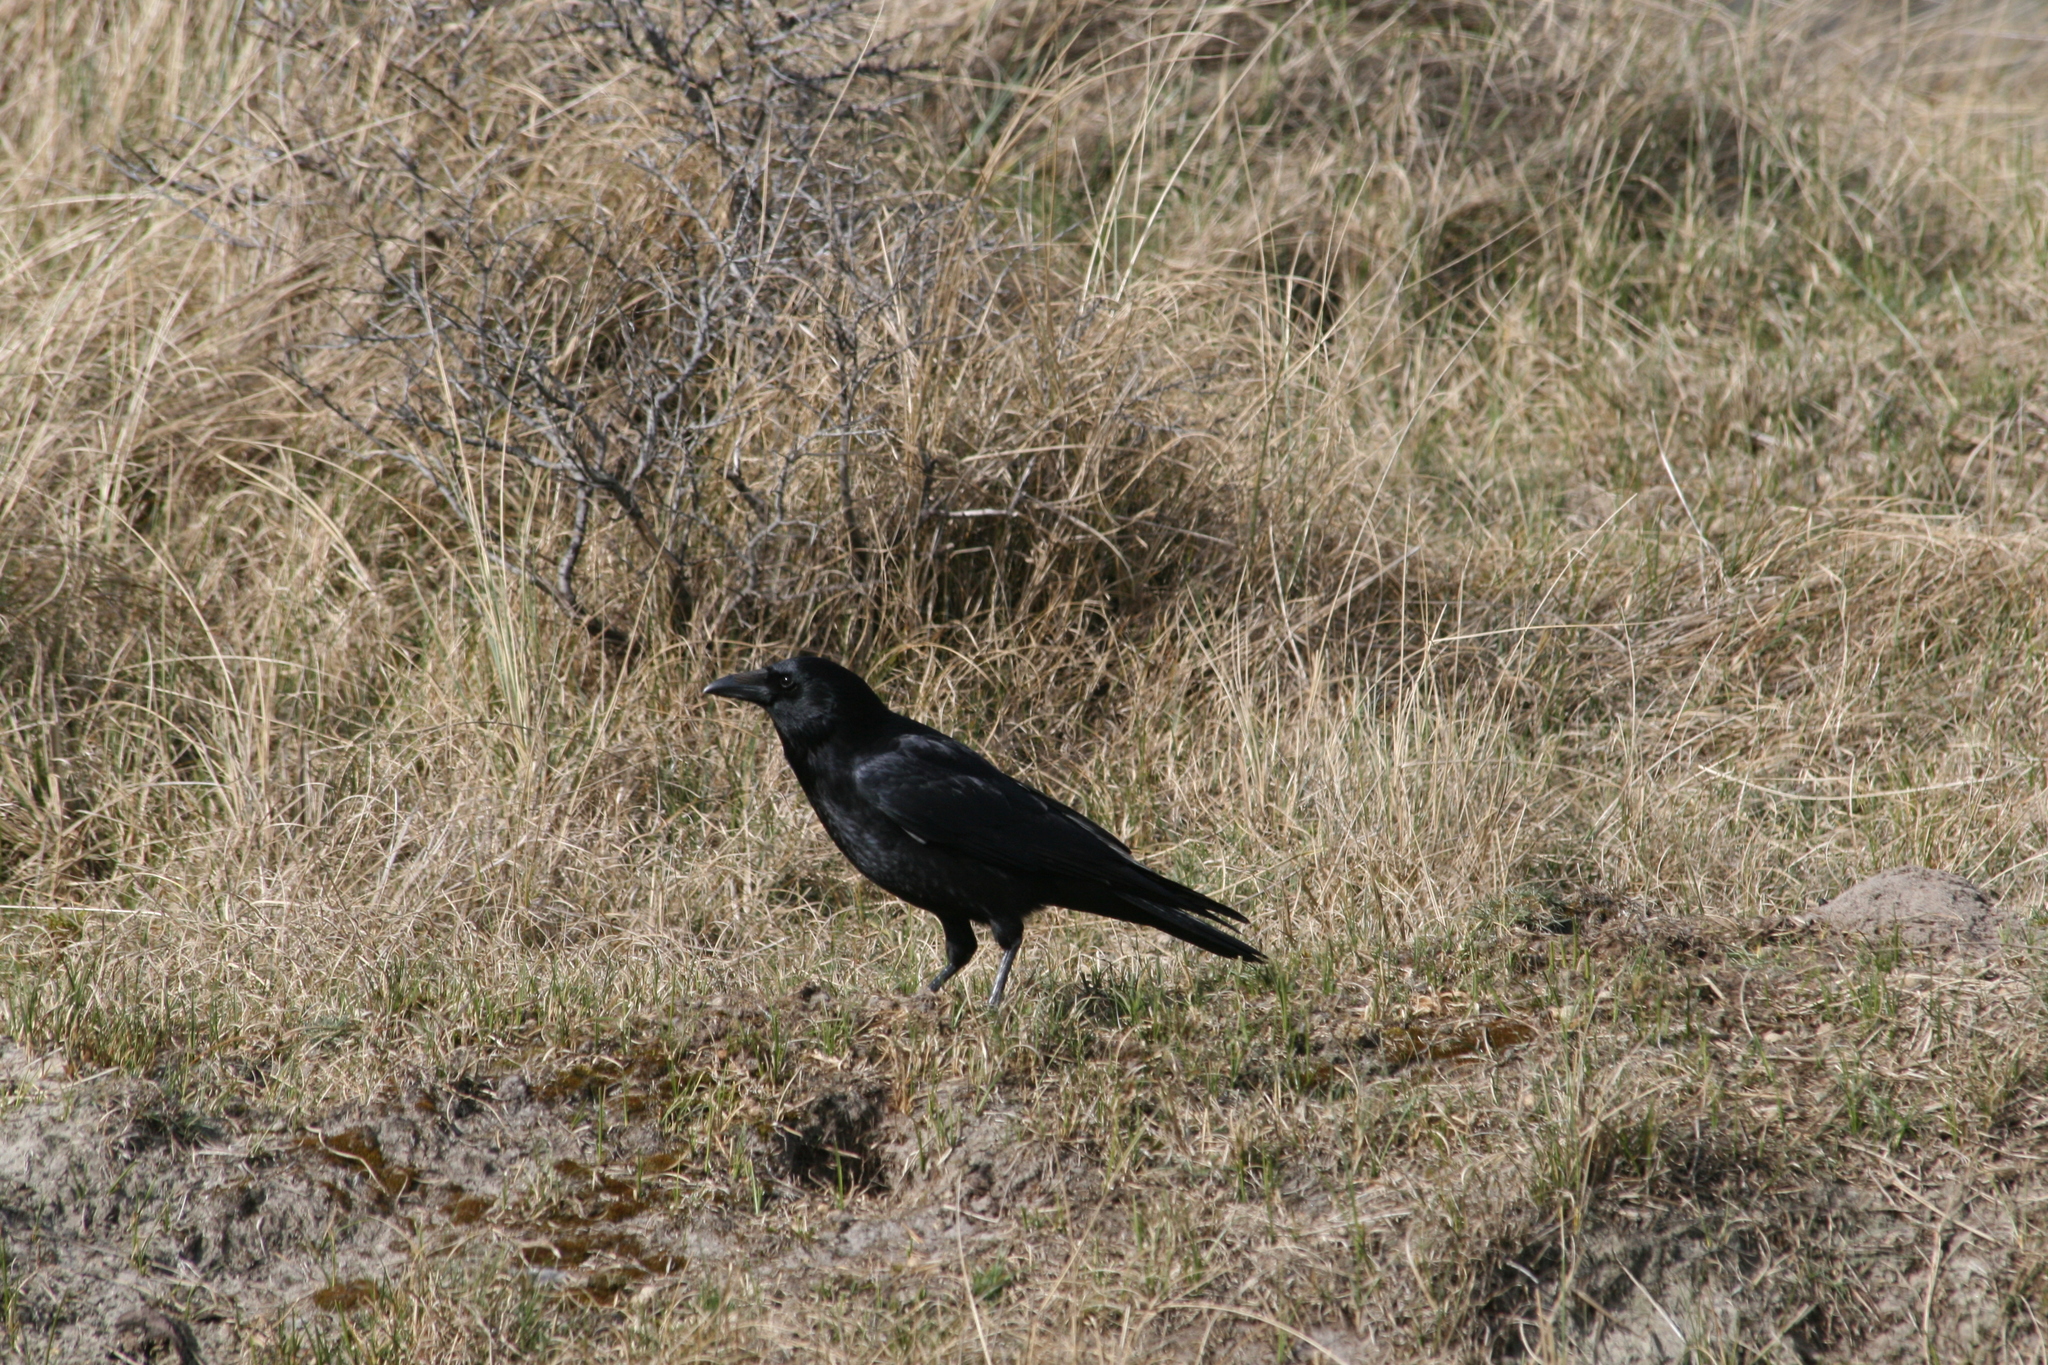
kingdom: Animalia
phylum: Chordata
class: Aves
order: Passeriformes
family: Corvidae
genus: Corvus
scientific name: Corvus corone
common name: Carrion crow
